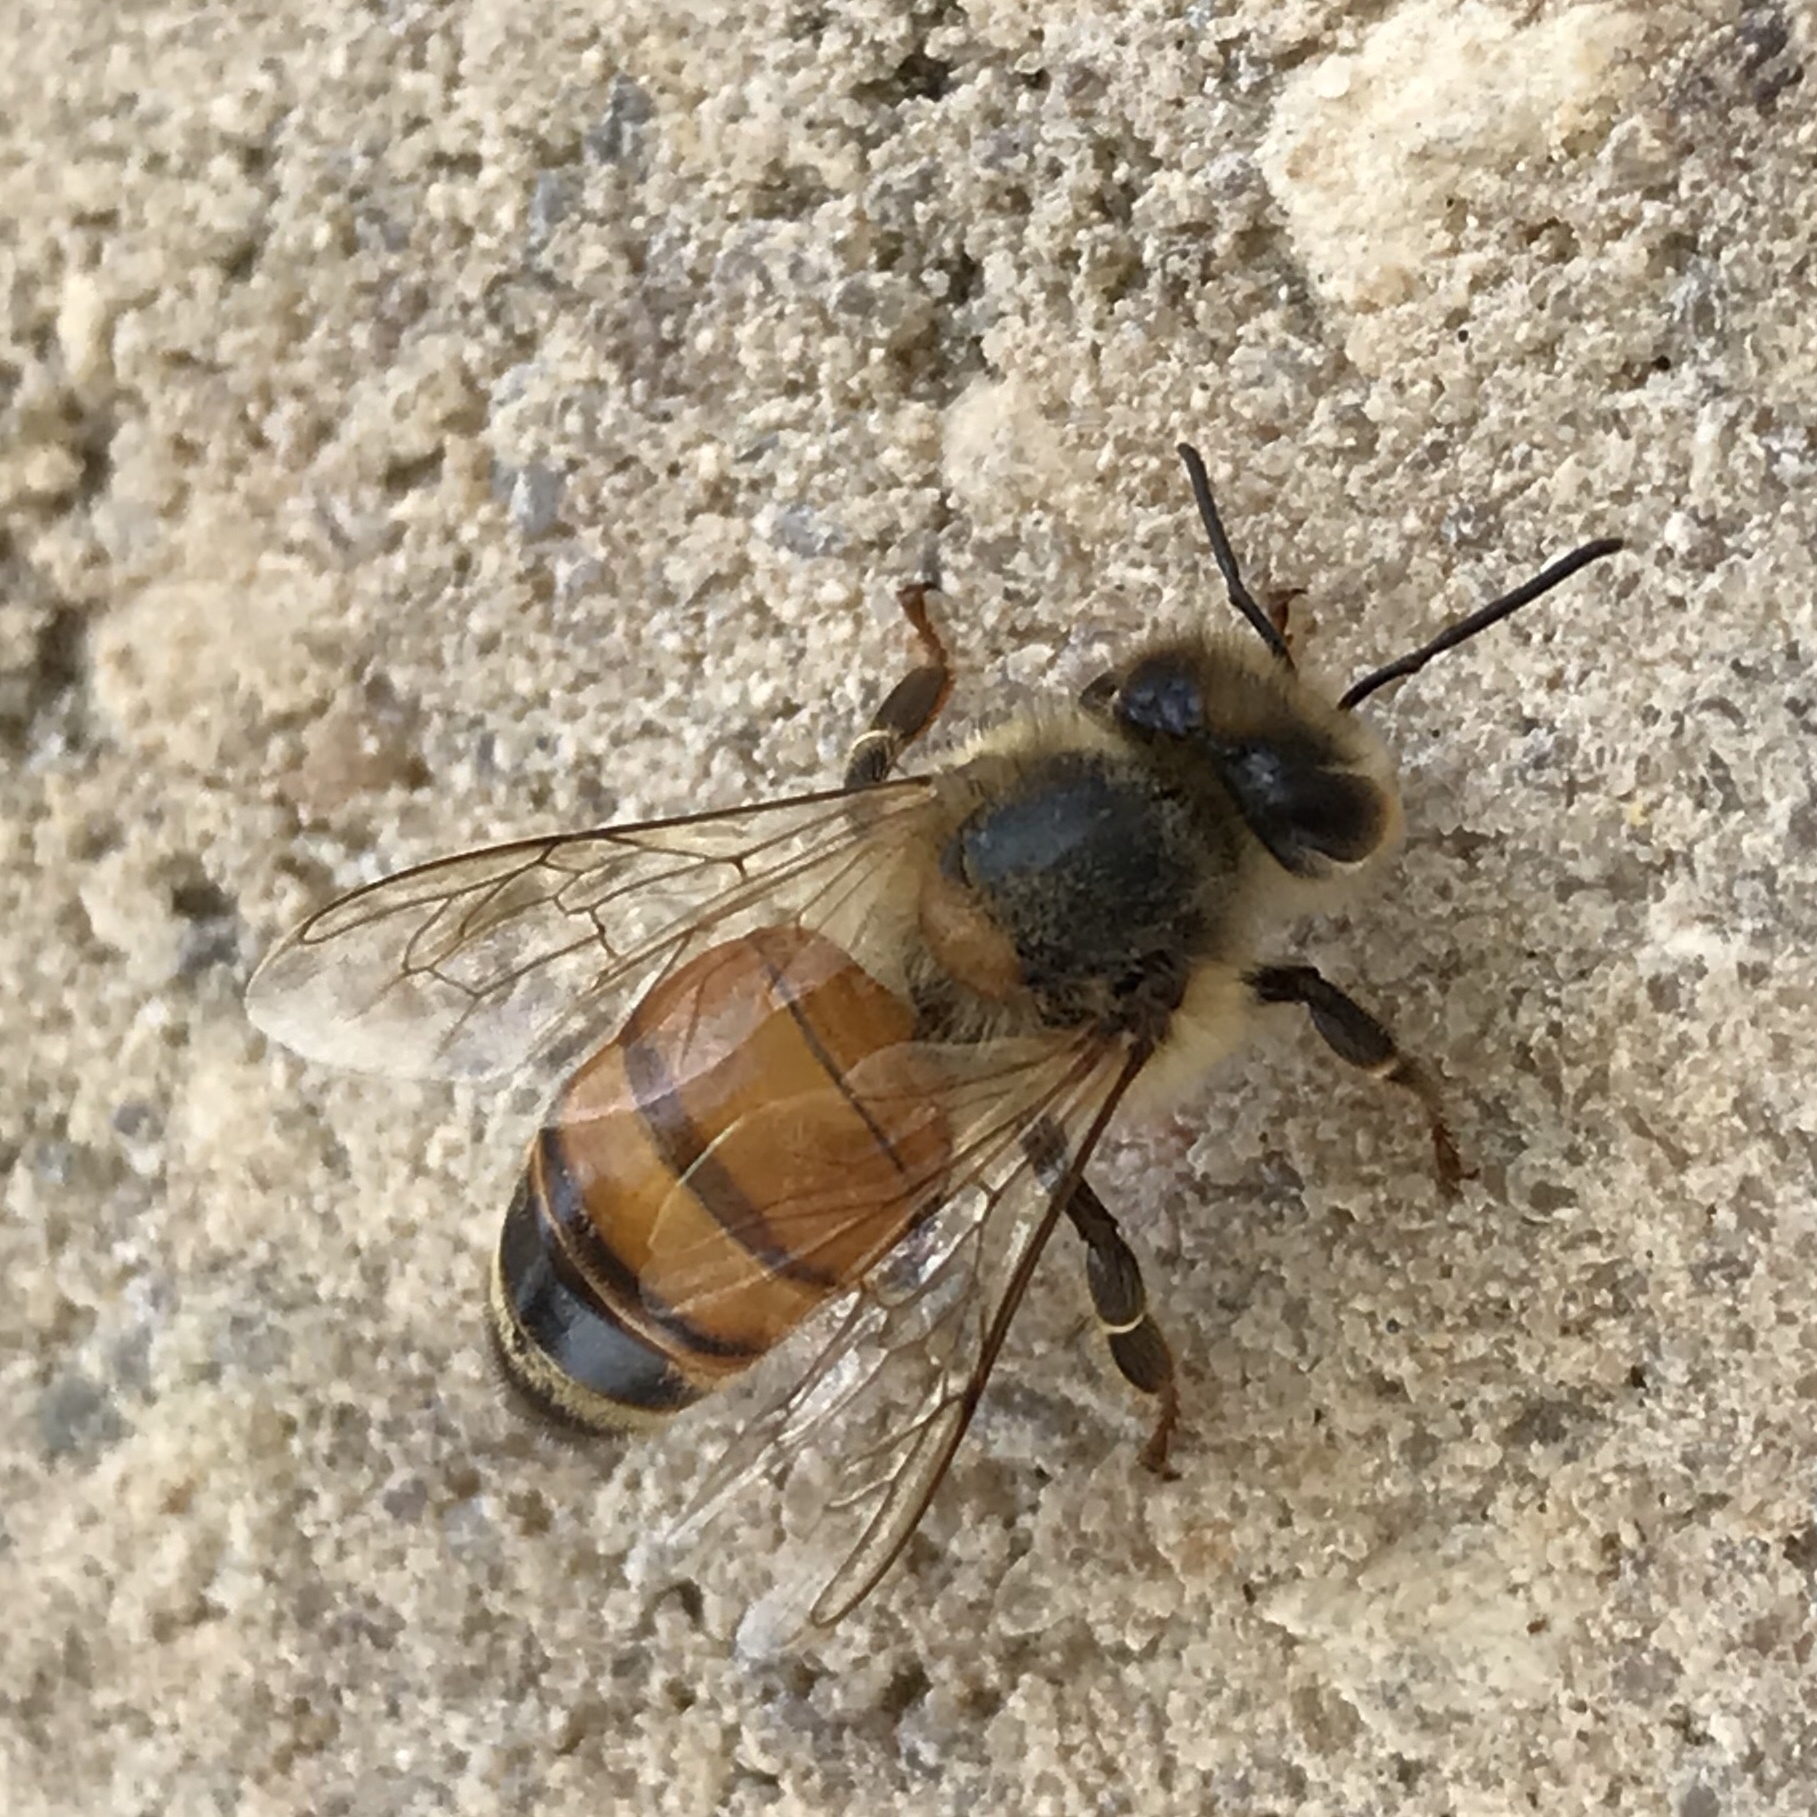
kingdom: Animalia
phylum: Arthropoda
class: Insecta
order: Hymenoptera
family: Apidae
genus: Apis
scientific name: Apis mellifera
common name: Honey bee
